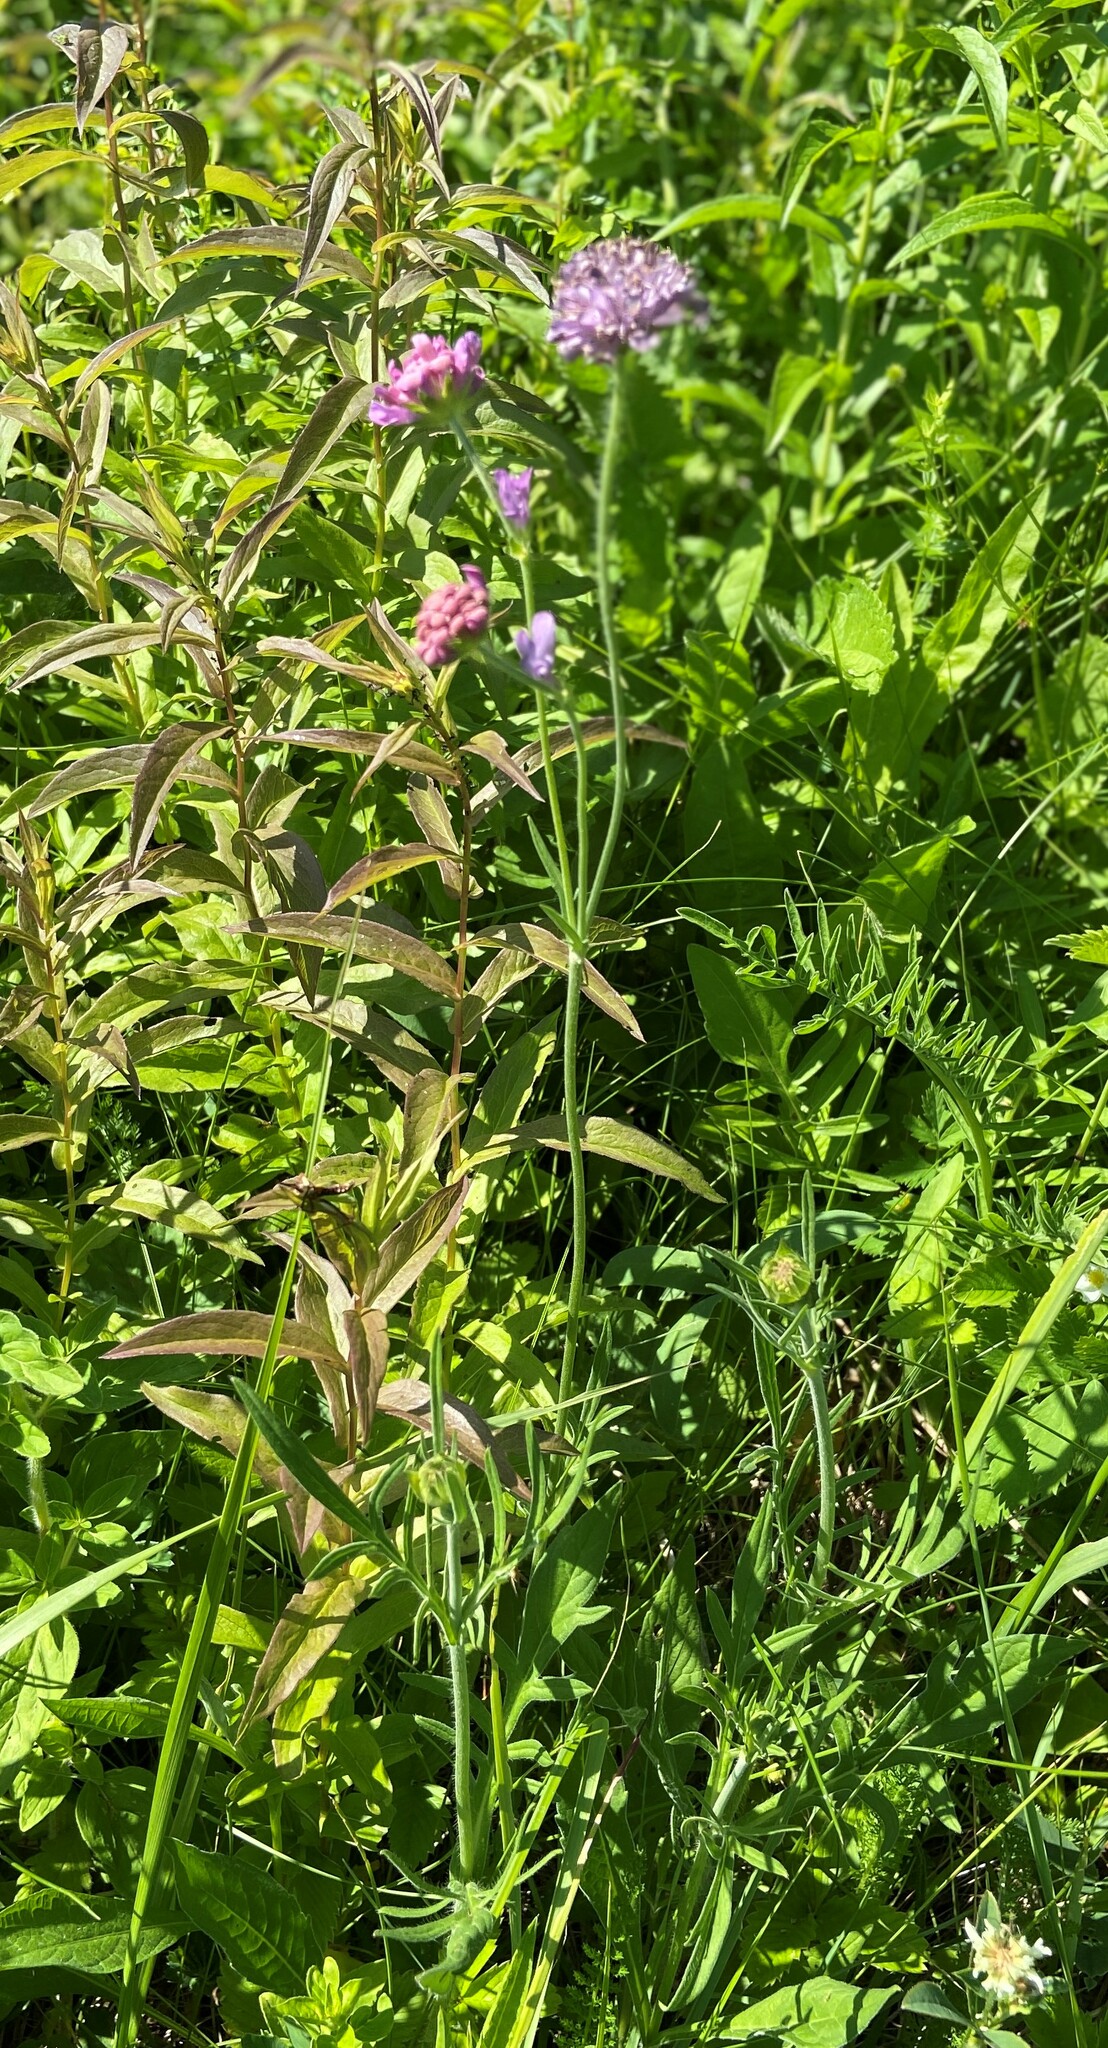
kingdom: Plantae
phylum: Tracheophyta
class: Magnoliopsida
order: Dipsacales
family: Caprifoliaceae
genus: Knautia
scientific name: Knautia arvensis
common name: Field scabiosa
